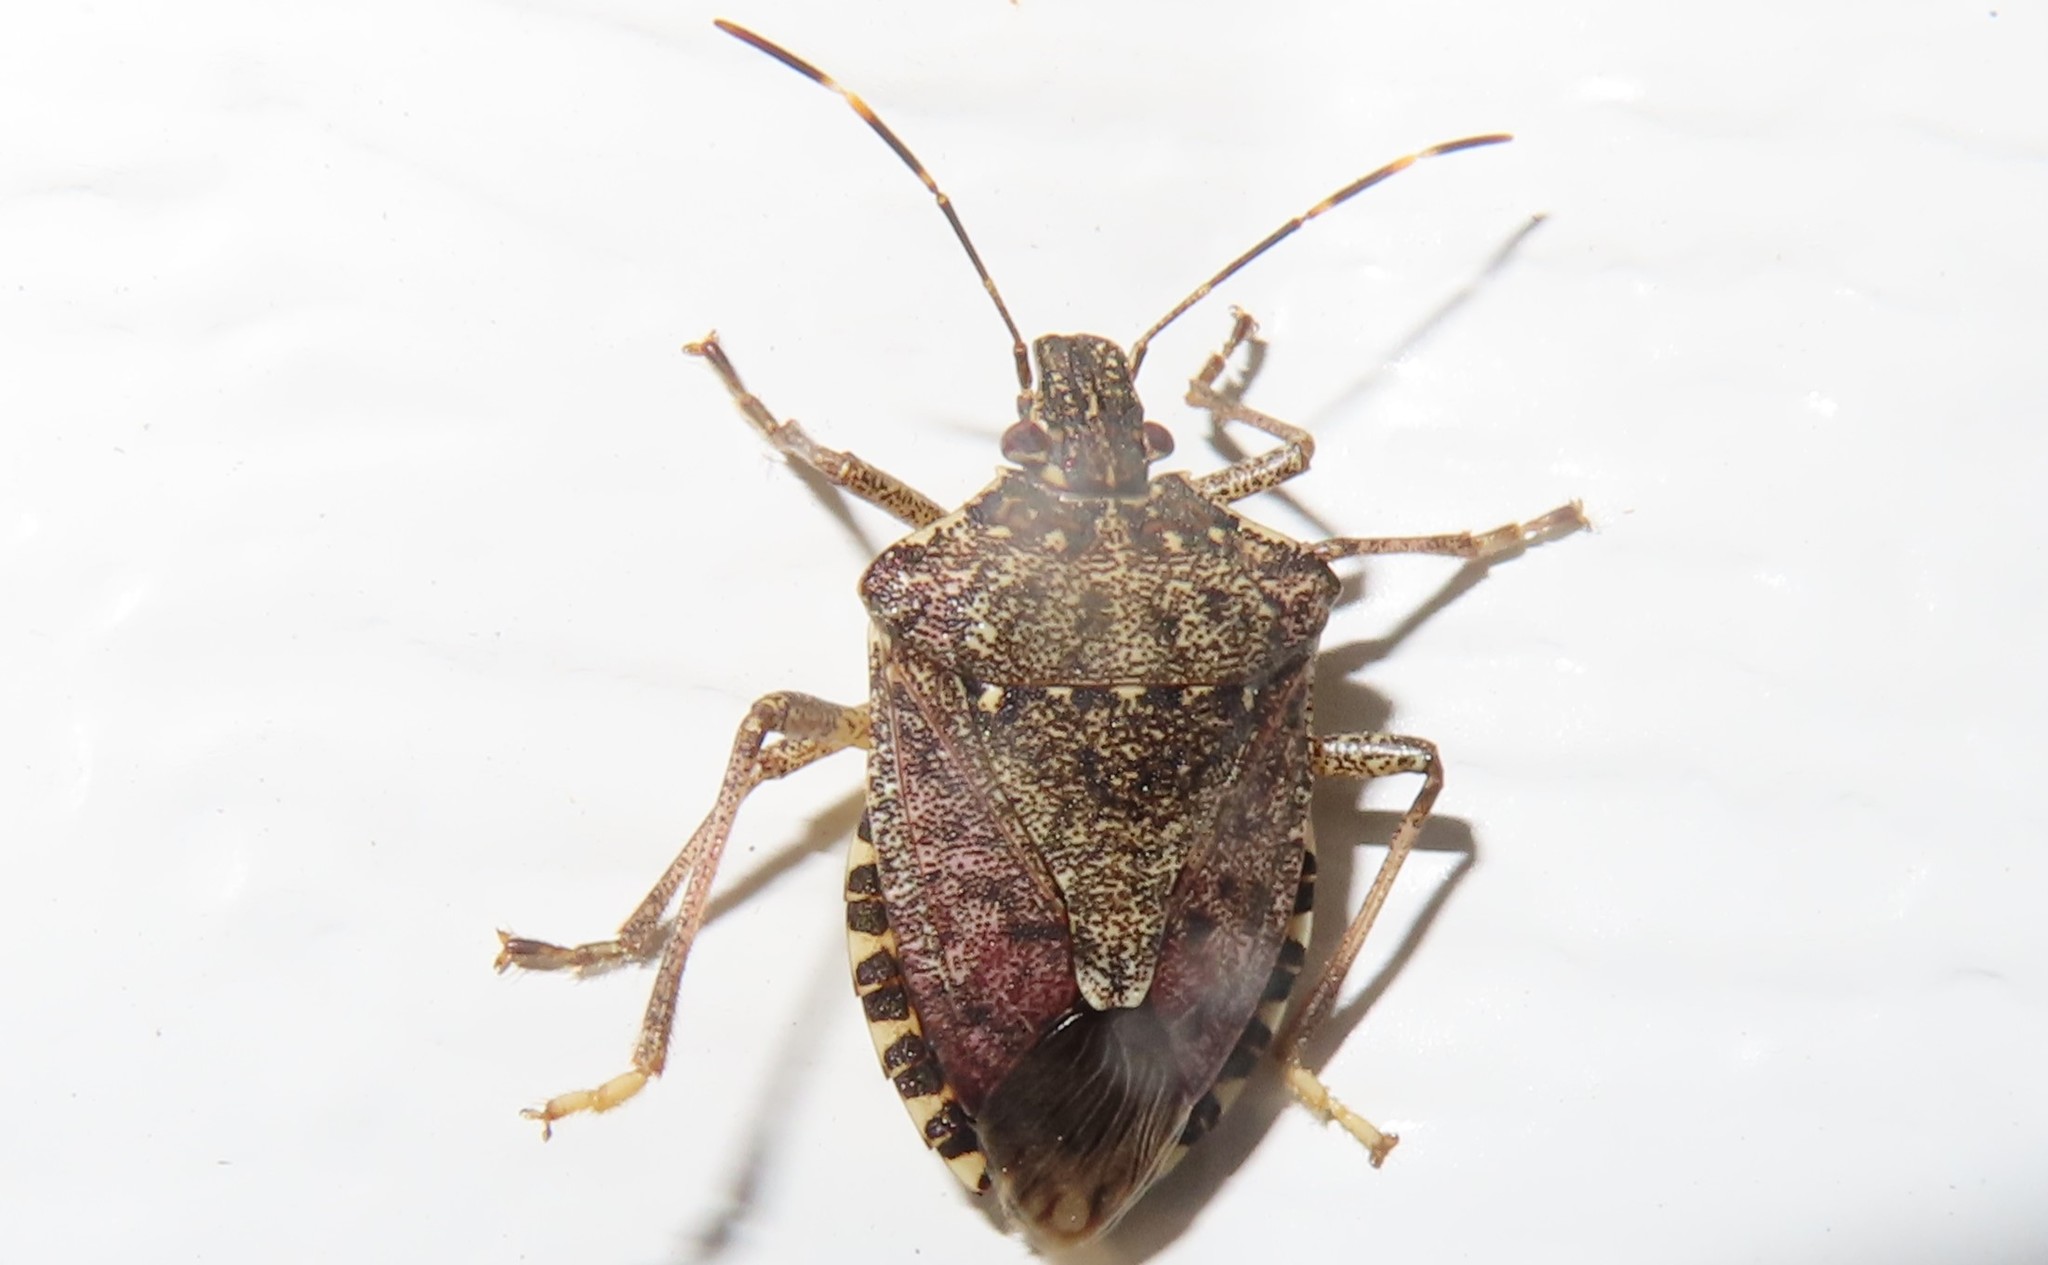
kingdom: Animalia
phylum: Arthropoda
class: Insecta
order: Hemiptera
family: Pentatomidae
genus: Halyomorpha
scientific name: Halyomorpha halys
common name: Brown marmorated stink bug
